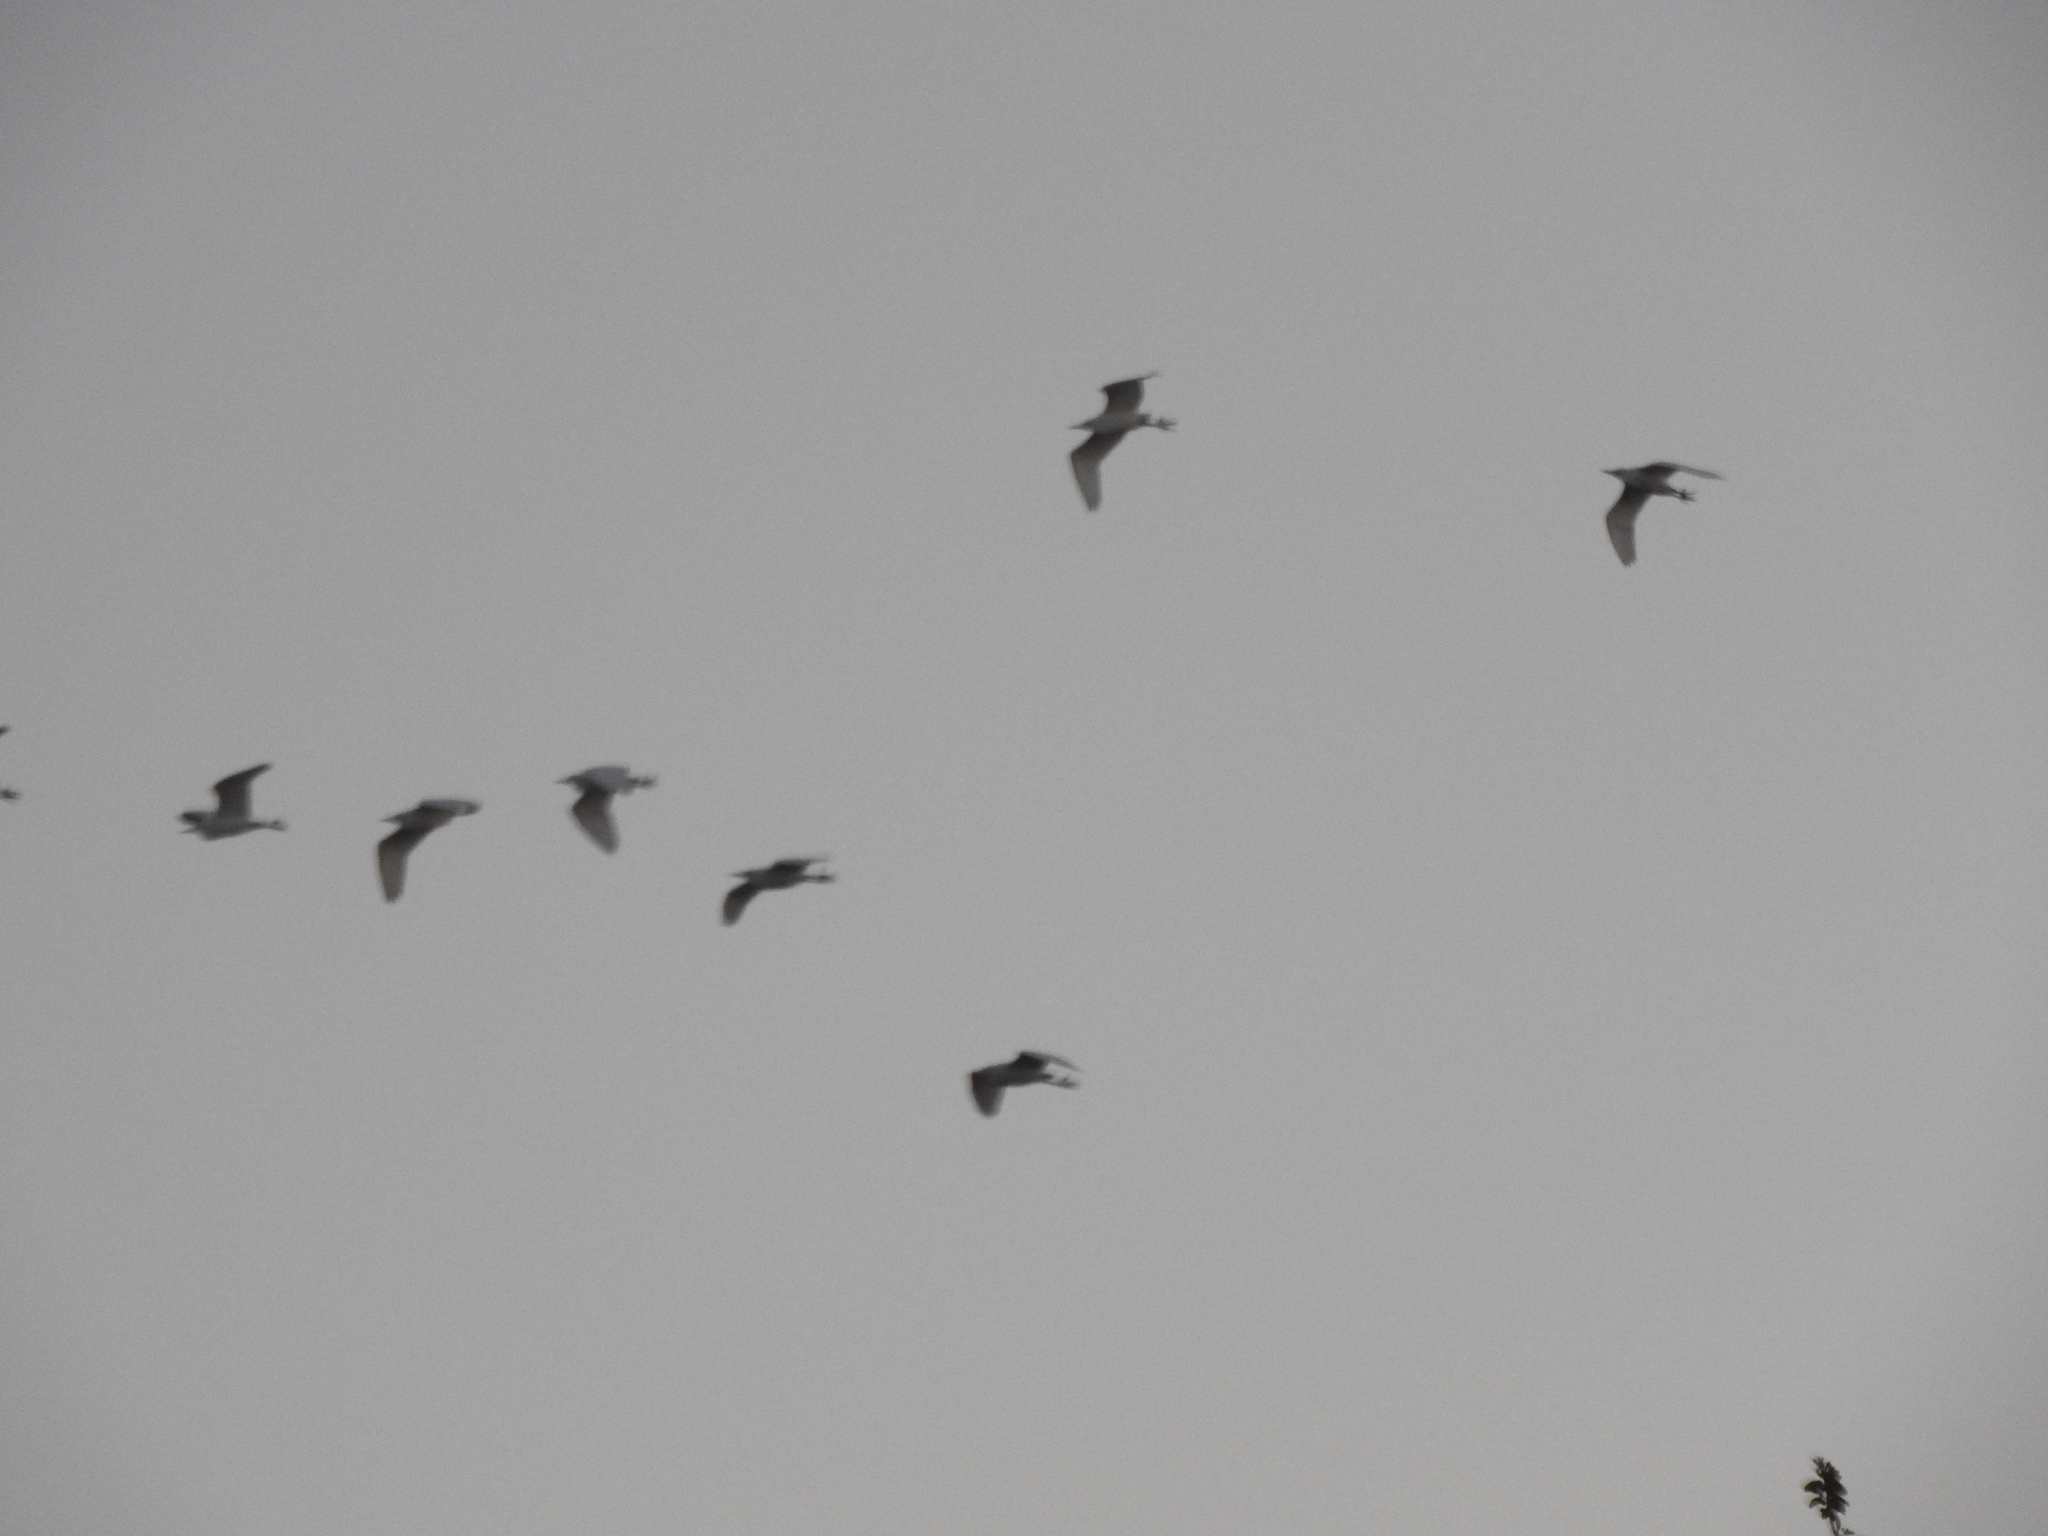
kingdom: Animalia
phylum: Chordata
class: Aves
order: Pelecaniformes
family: Ardeidae
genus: Bubulcus
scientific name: Bubulcus ibis
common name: Cattle egret
